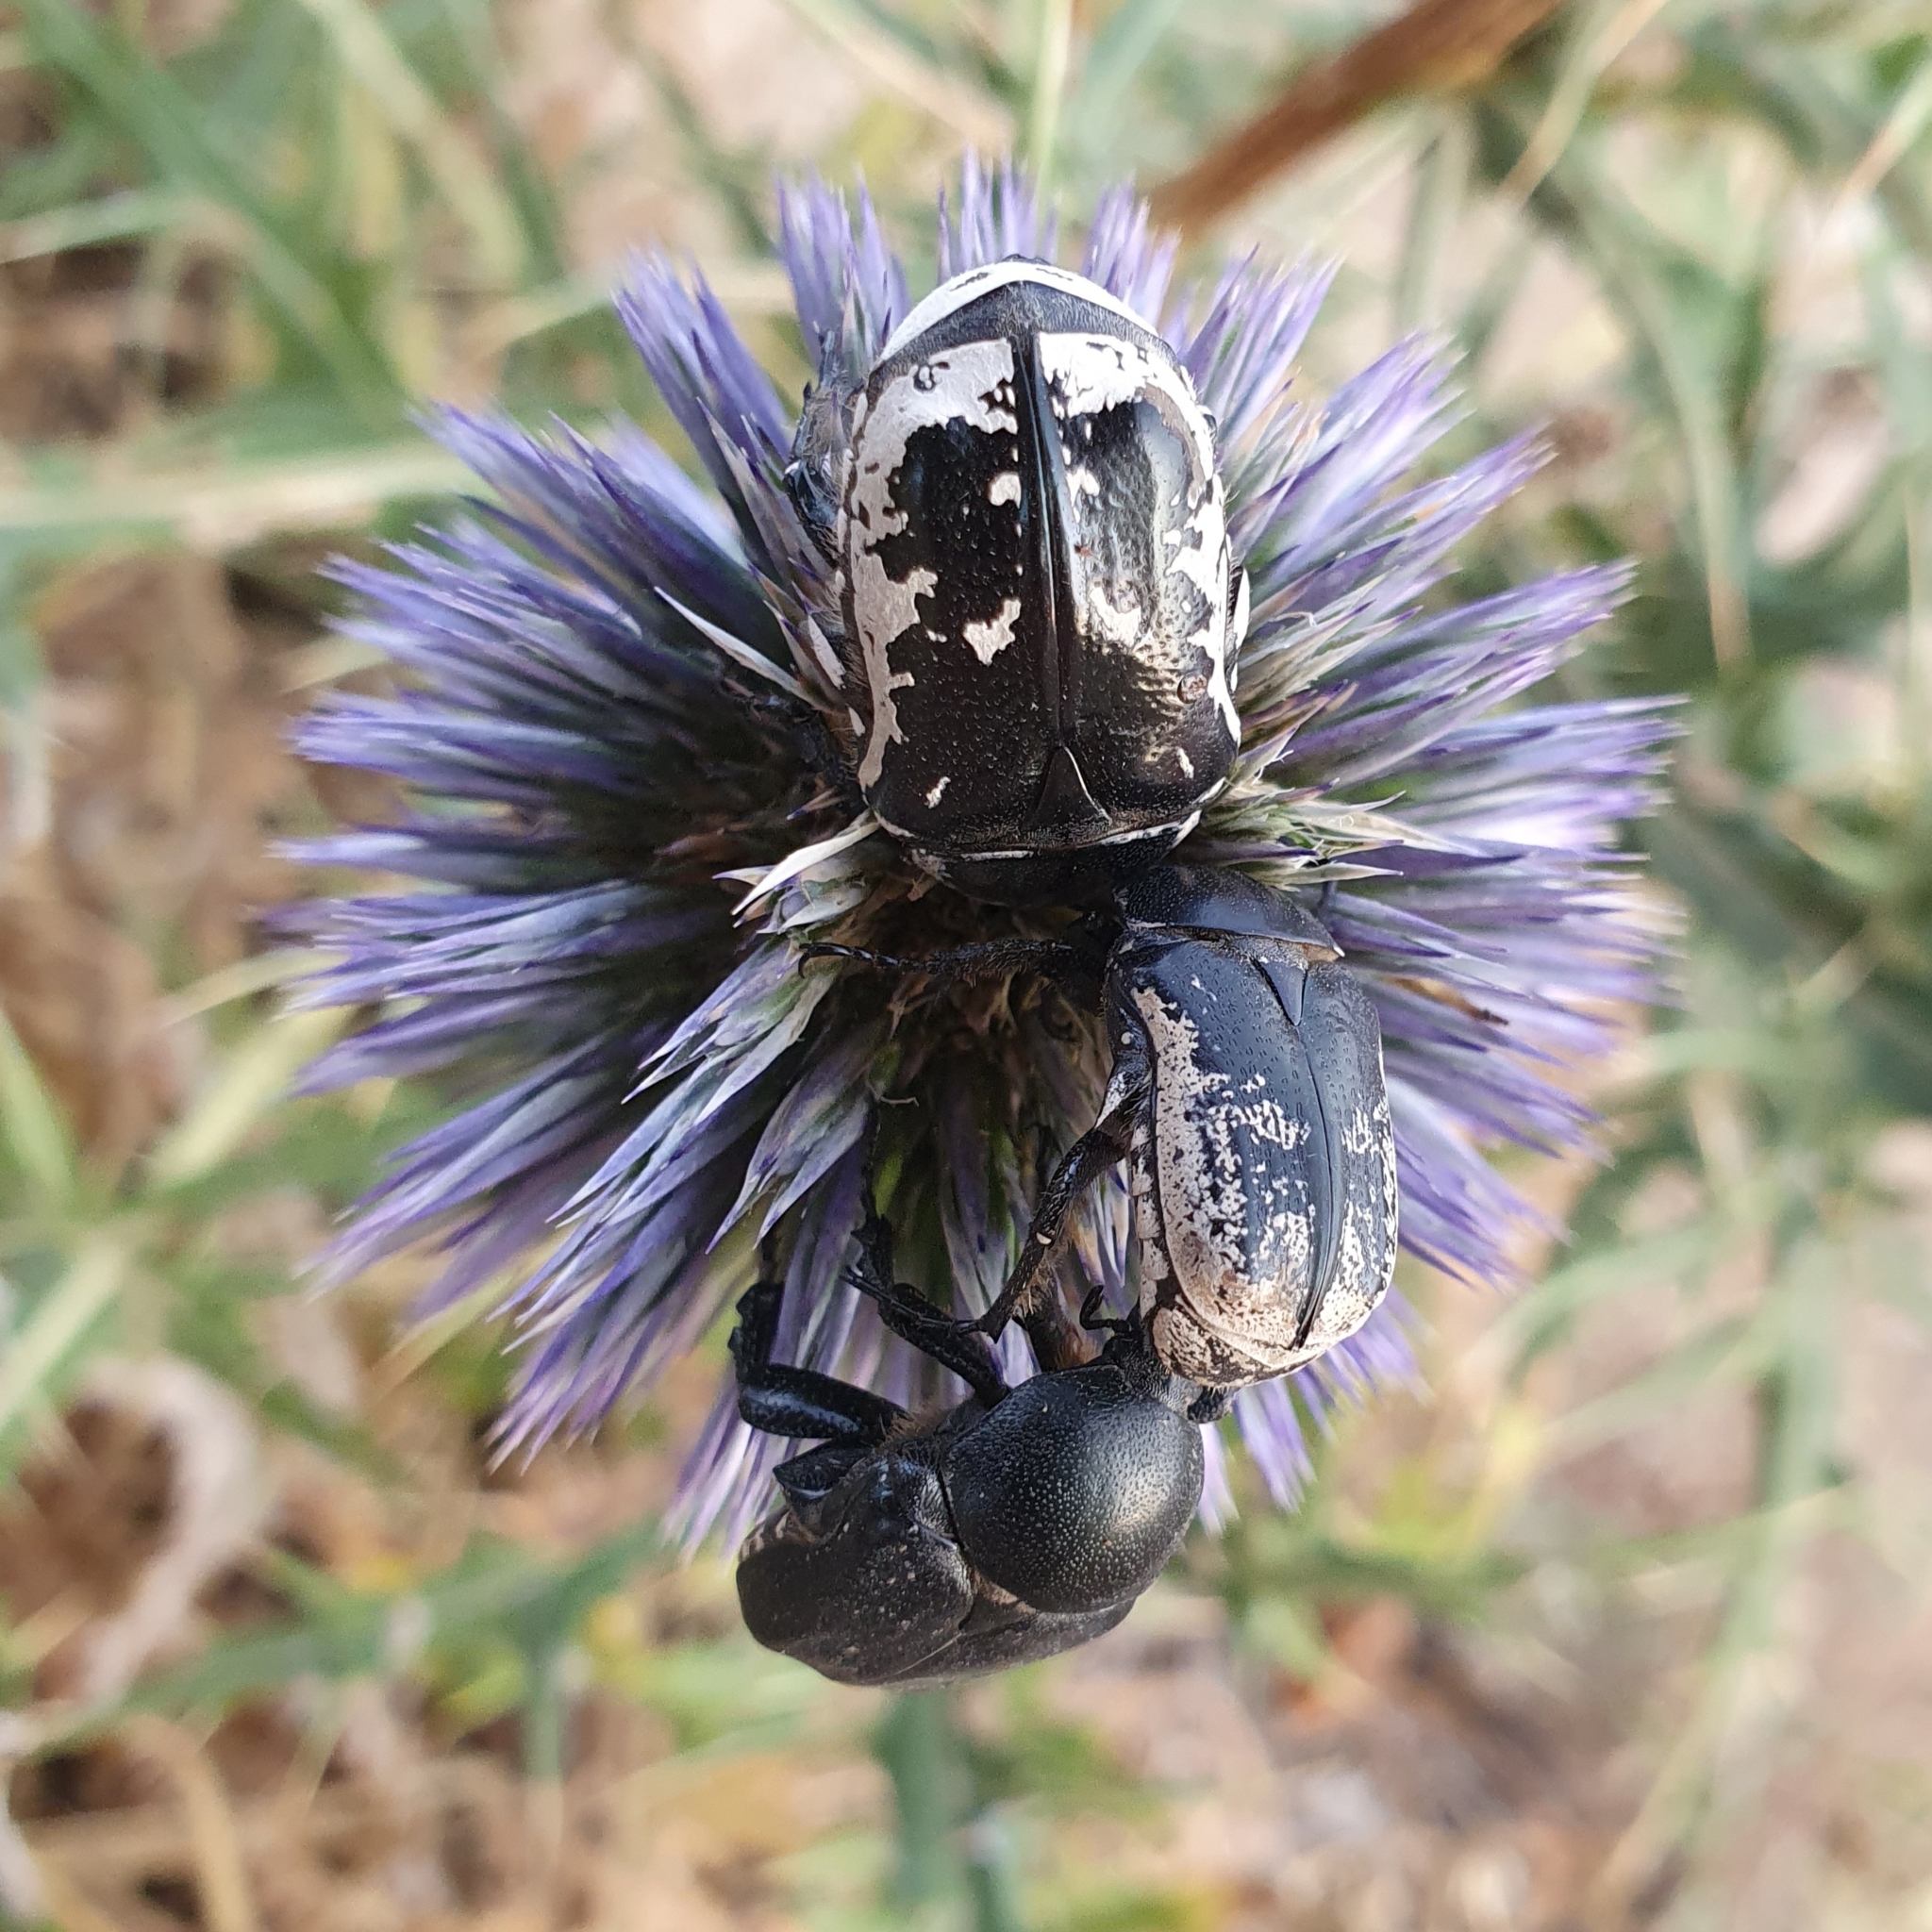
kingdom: Animalia
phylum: Arthropoda
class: Insecta
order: Coleoptera
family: Scarabaeidae
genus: Aethiessa
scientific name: Aethiessa floralis
